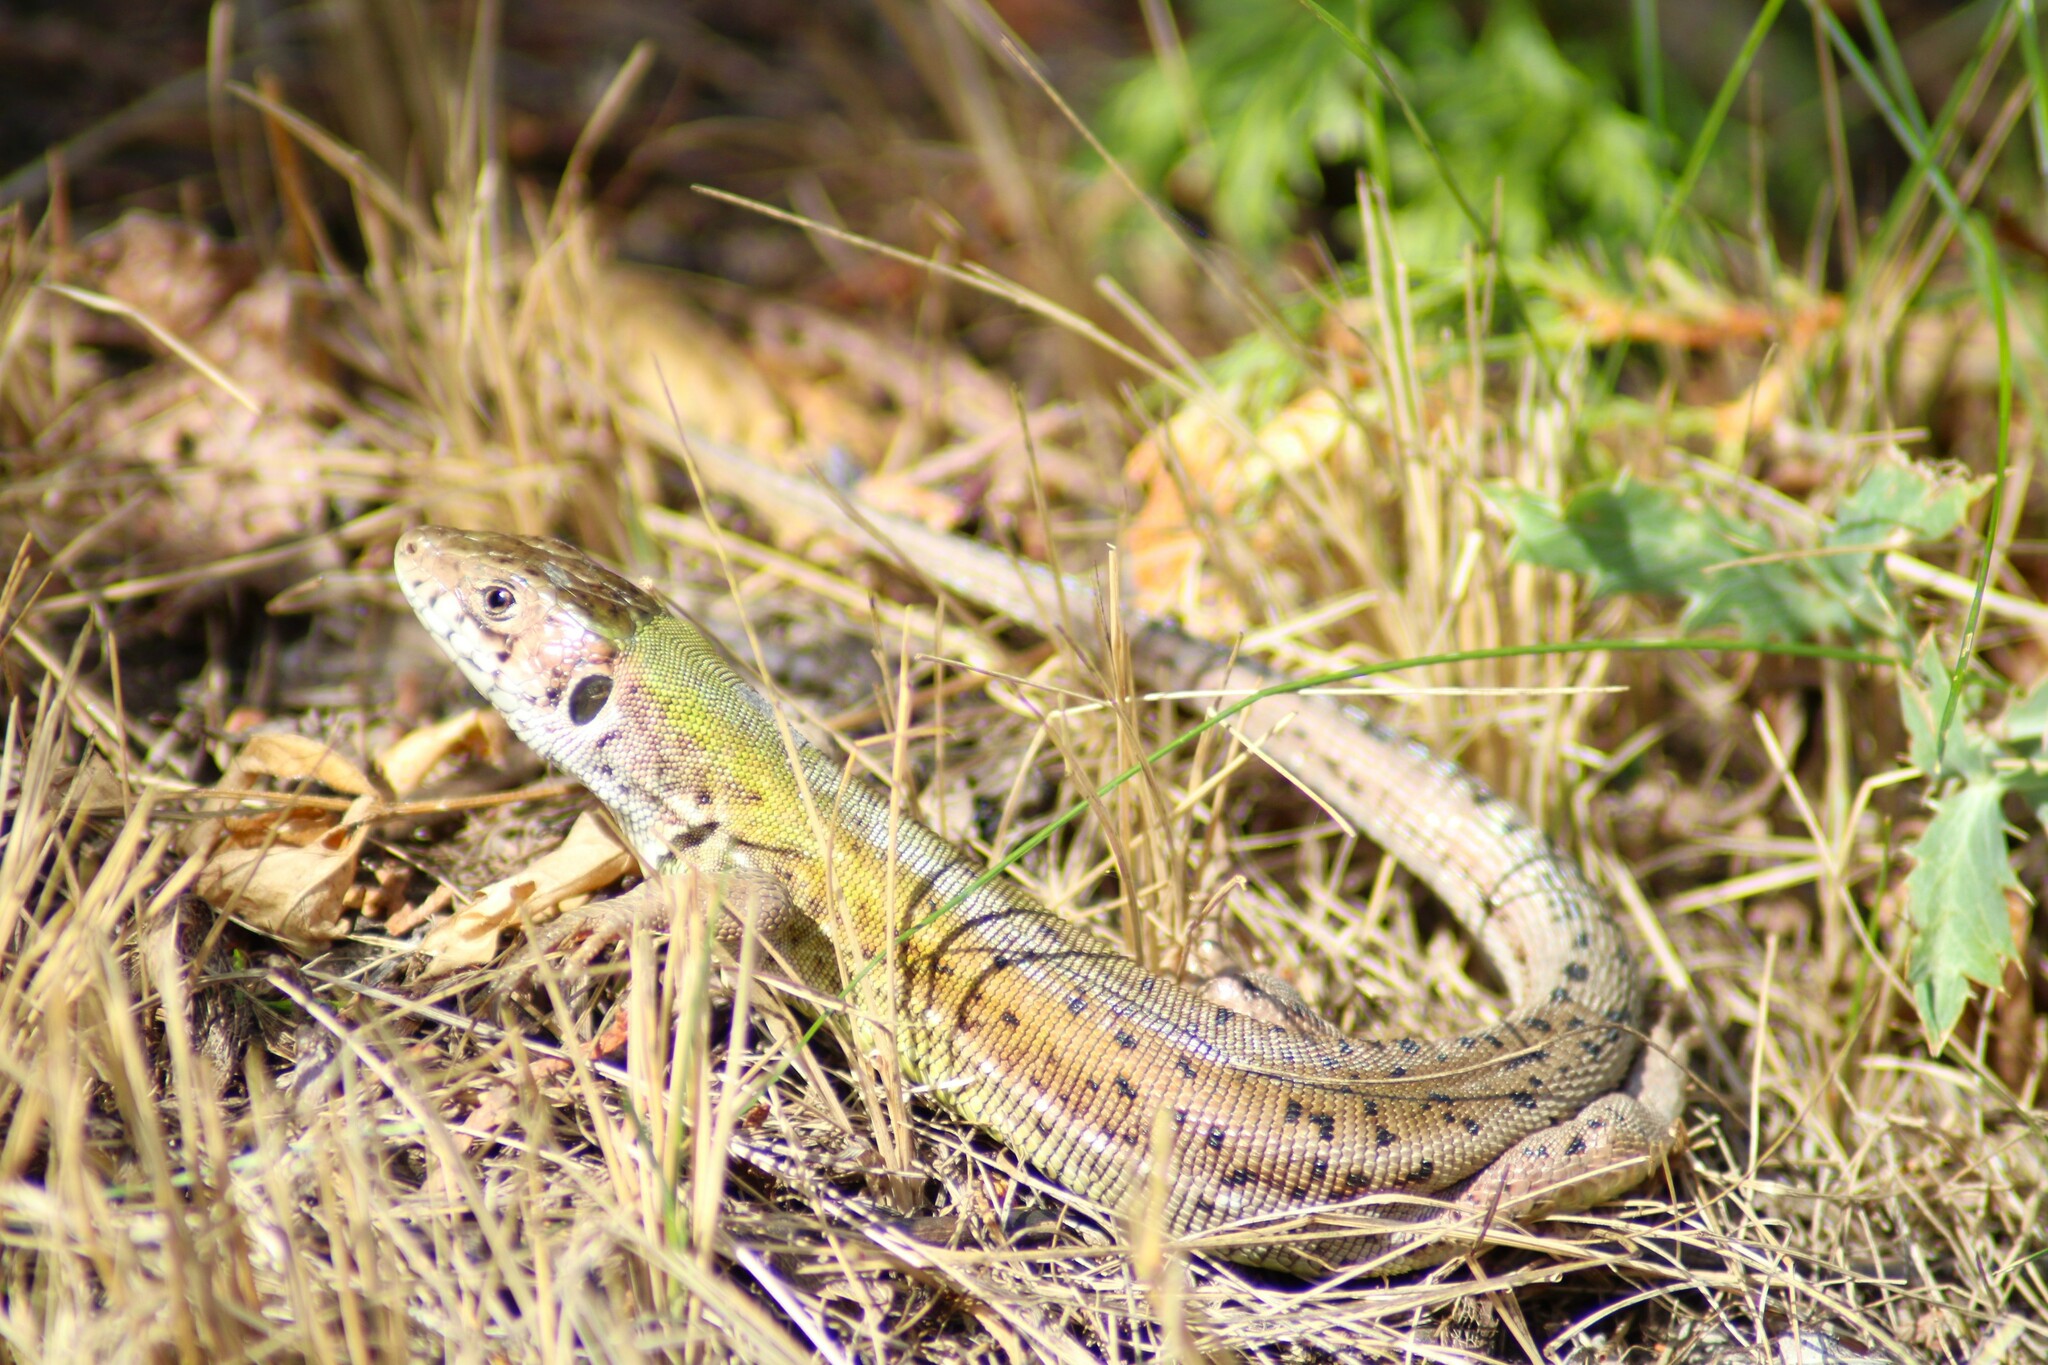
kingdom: Animalia
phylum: Chordata
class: Squamata
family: Lacertidae
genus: Lacerta
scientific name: Lacerta viridis
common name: European green lizard
